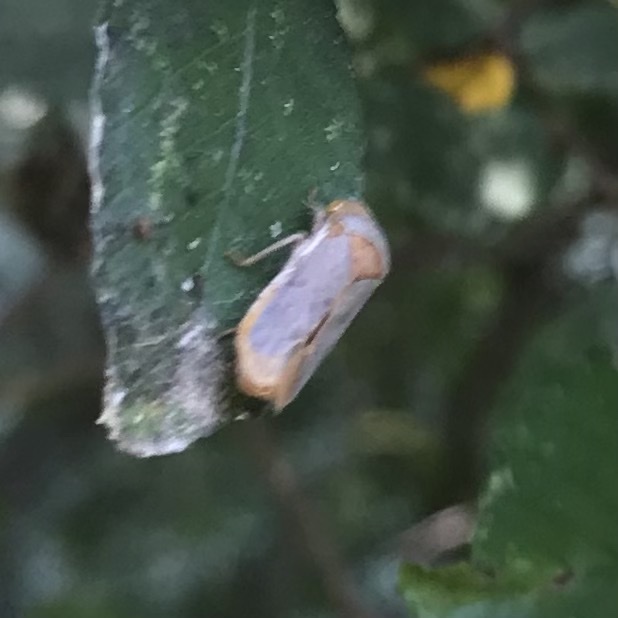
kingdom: Animalia
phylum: Arthropoda
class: Insecta
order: Hemiptera
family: Cicadellidae
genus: Oncometopia
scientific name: Oncometopia hamiltoni
